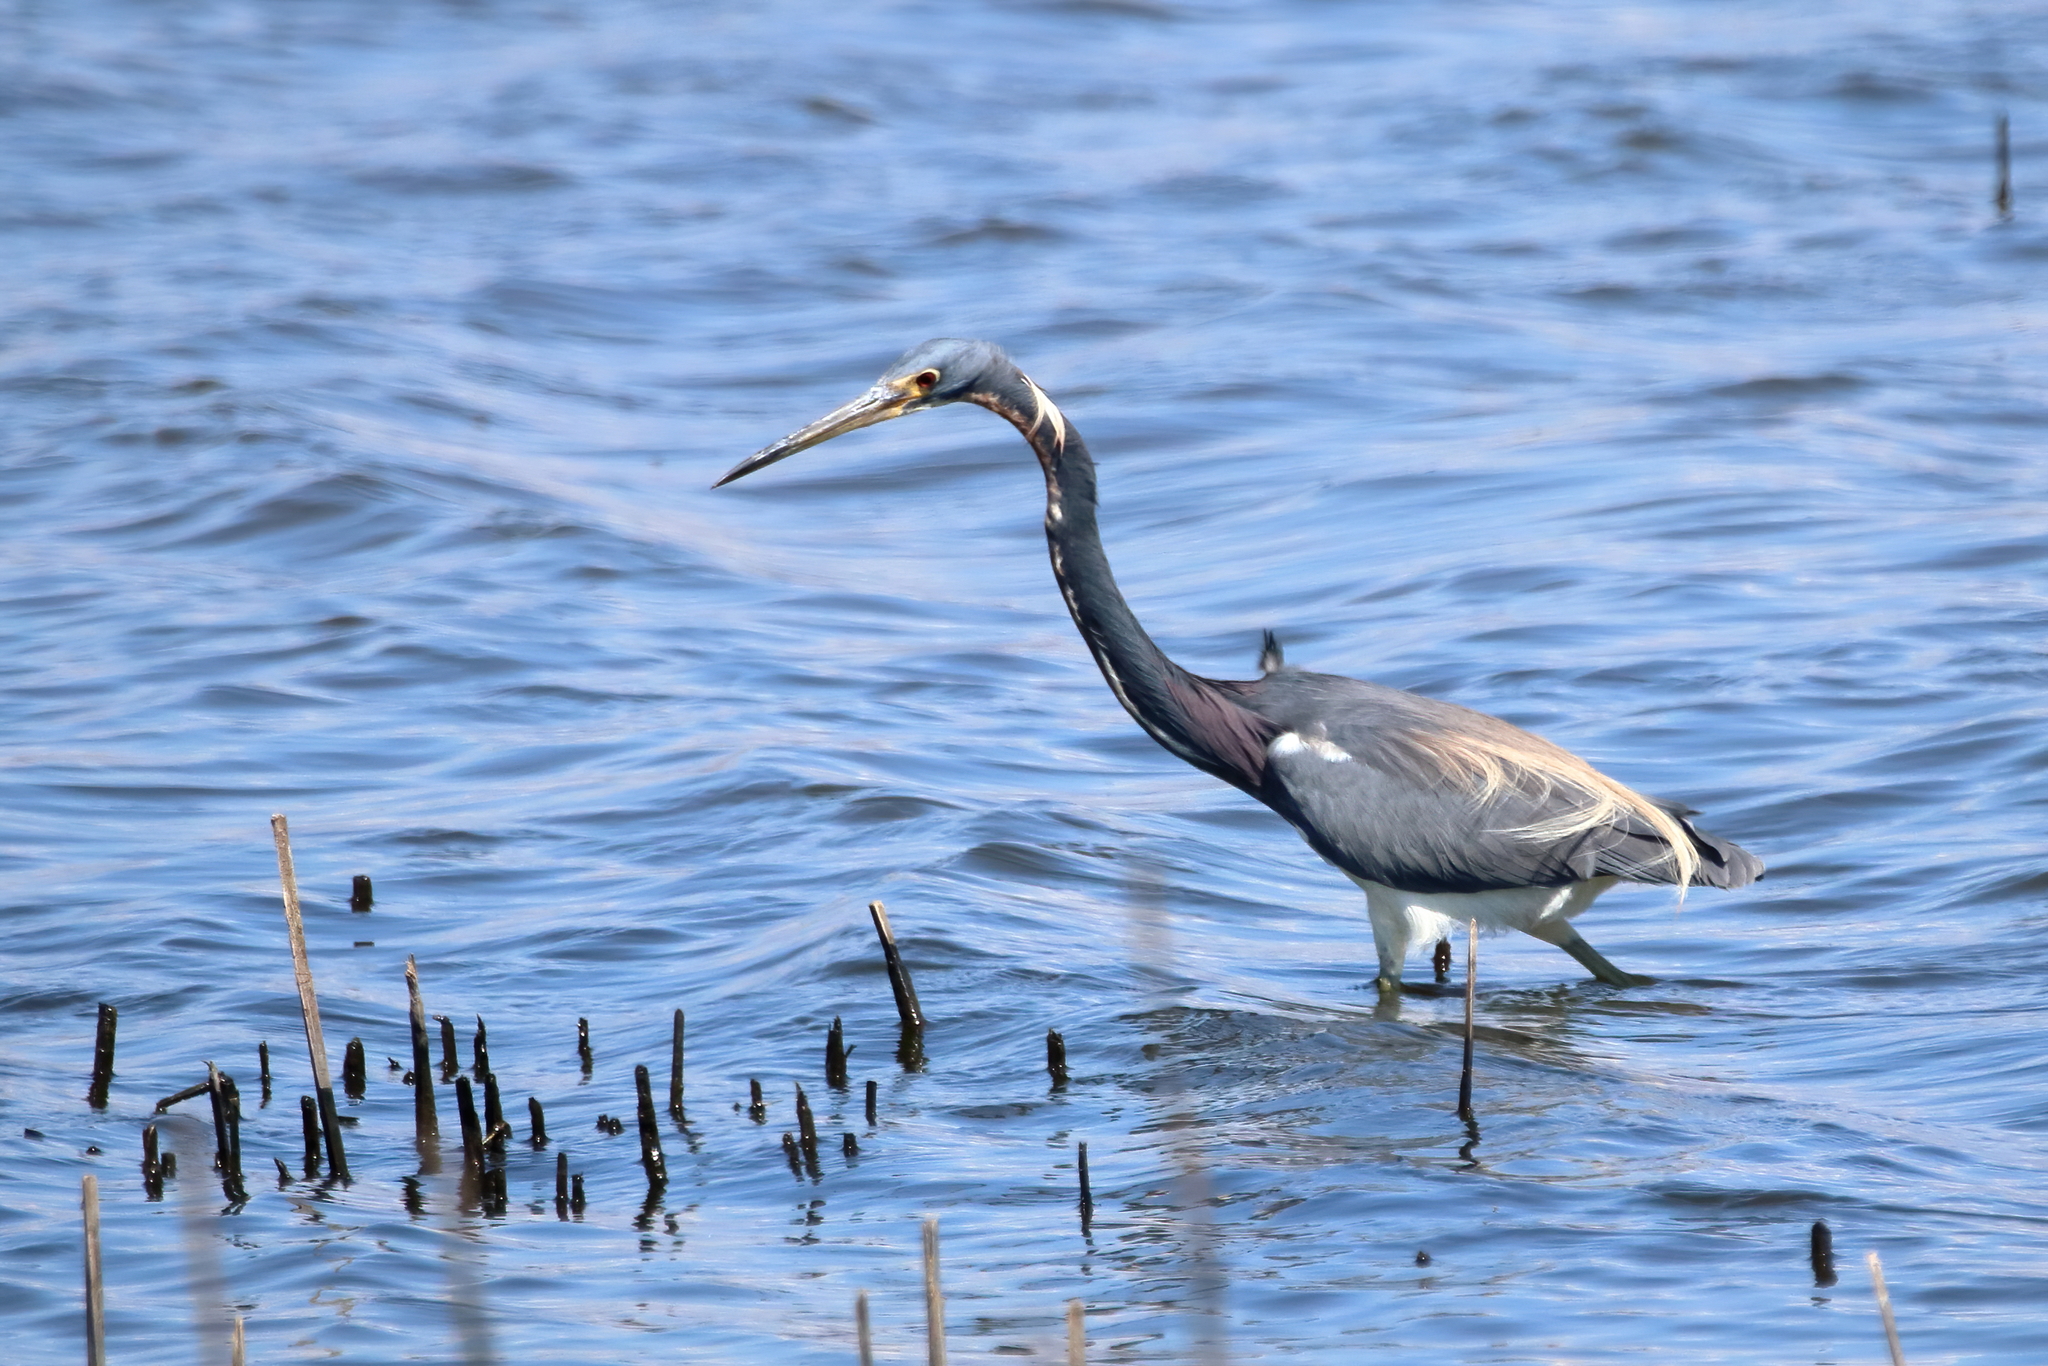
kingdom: Animalia
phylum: Chordata
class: Aves
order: Pelecaniformes
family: Ardeidae
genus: Egretta
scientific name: Egretta tricolor
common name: Tricolored heron
